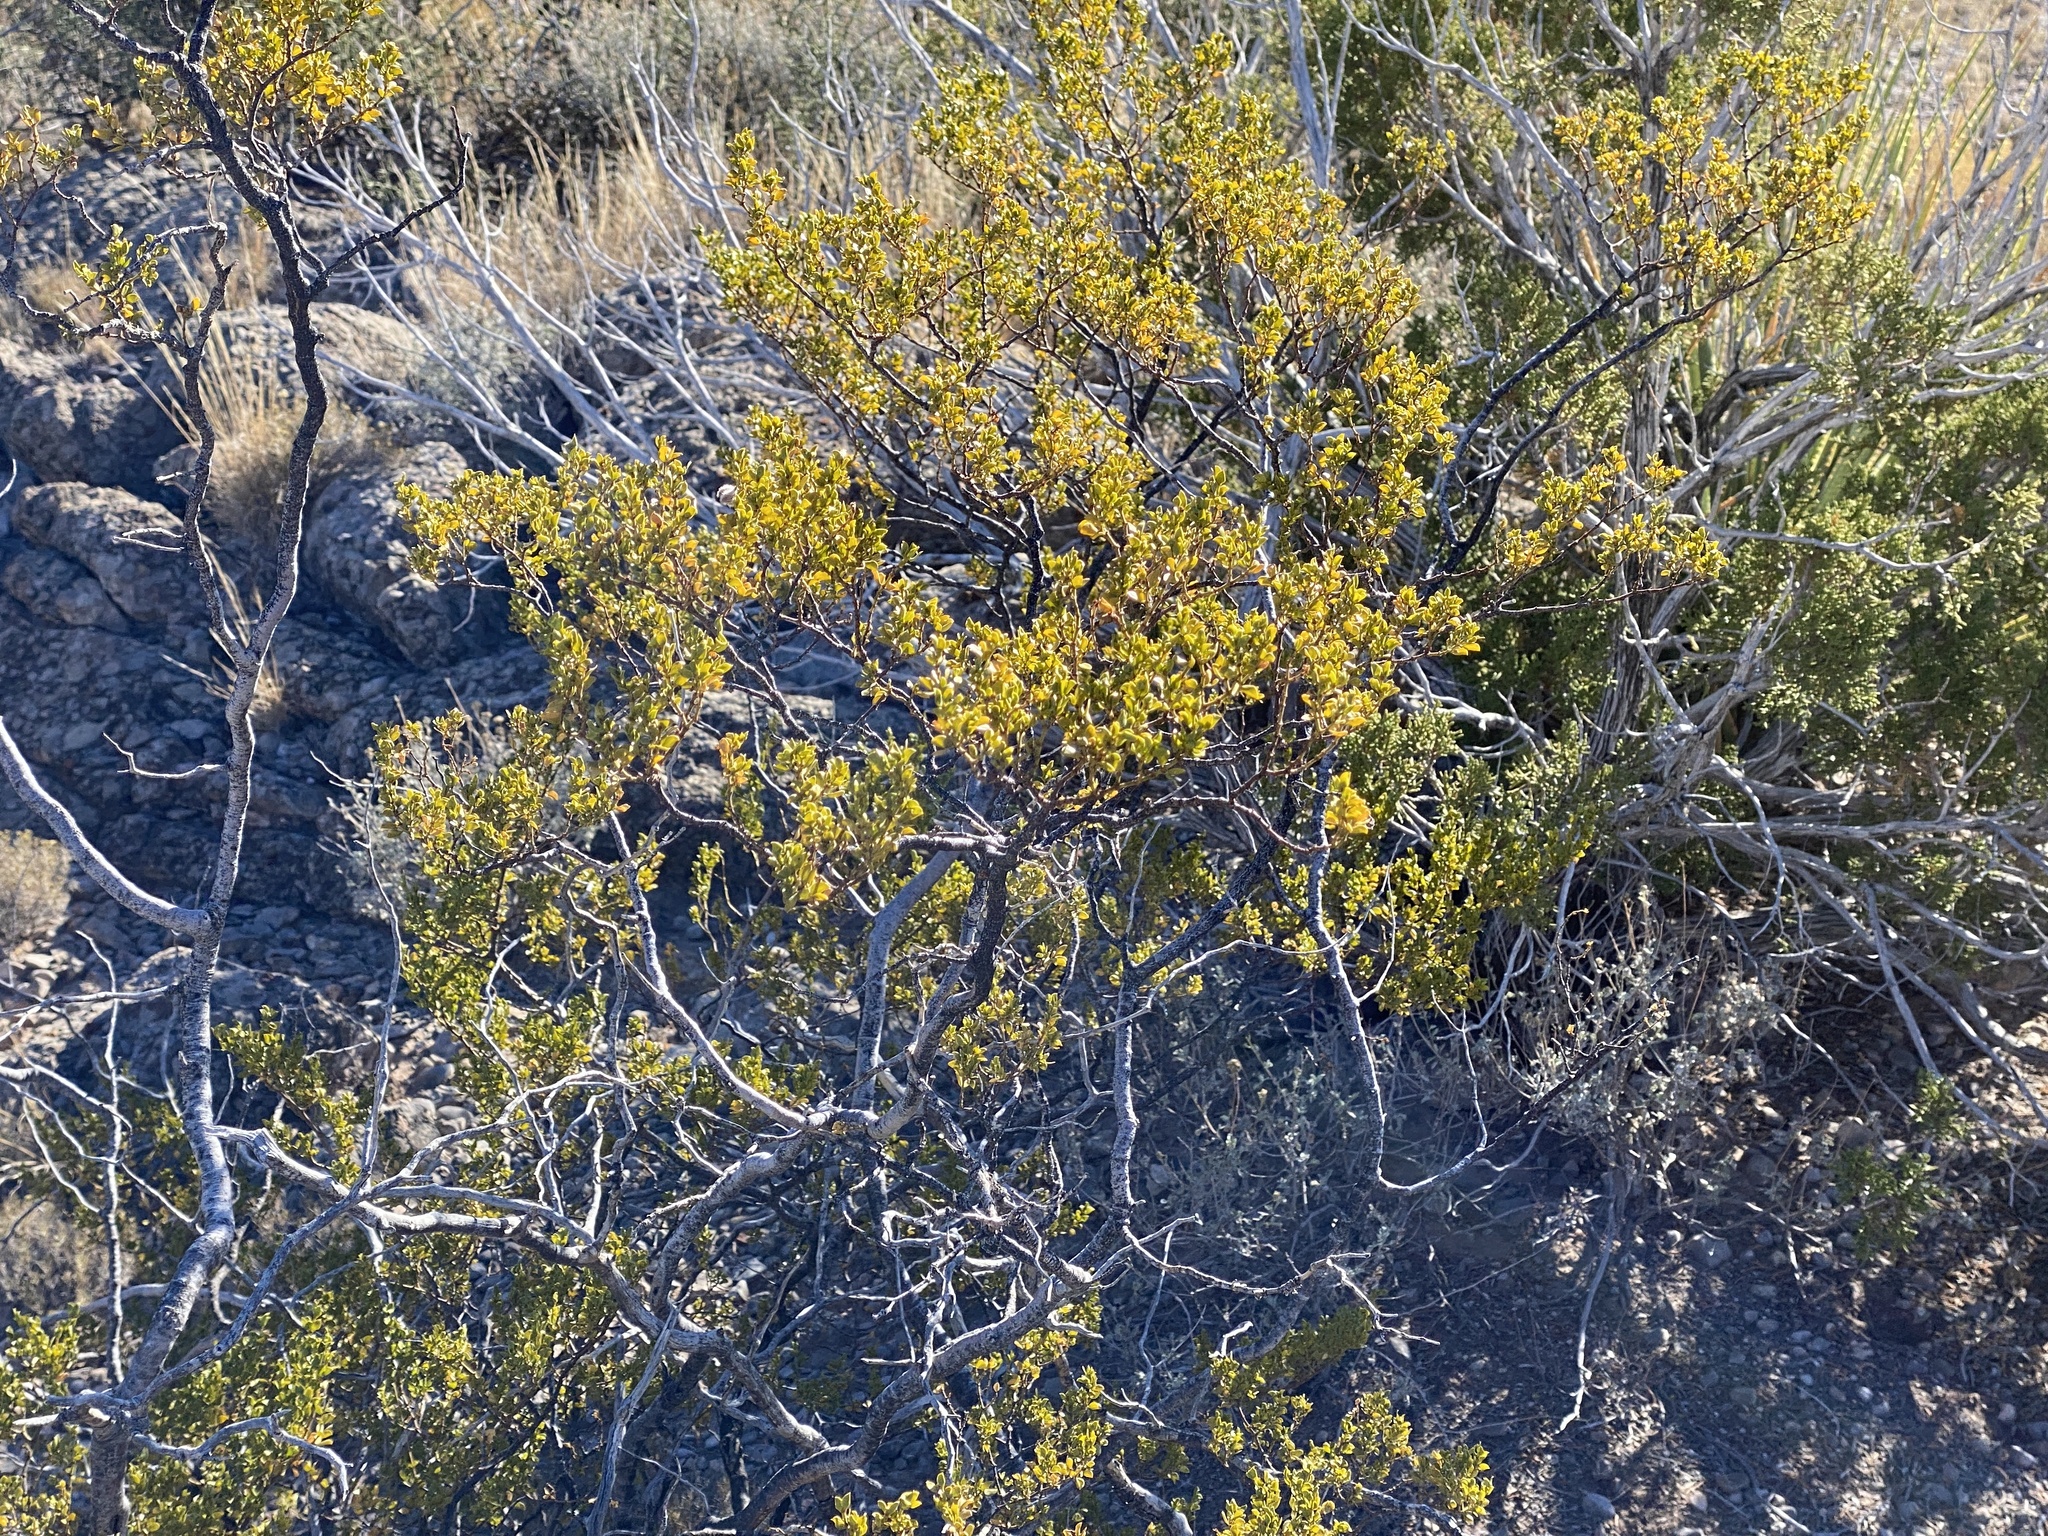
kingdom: Plantae
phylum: Tracheophyta
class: Magnoliopsida
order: Zygophyllales
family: Zygophyllaceae
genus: Larrea
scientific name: Larrea tridentata
